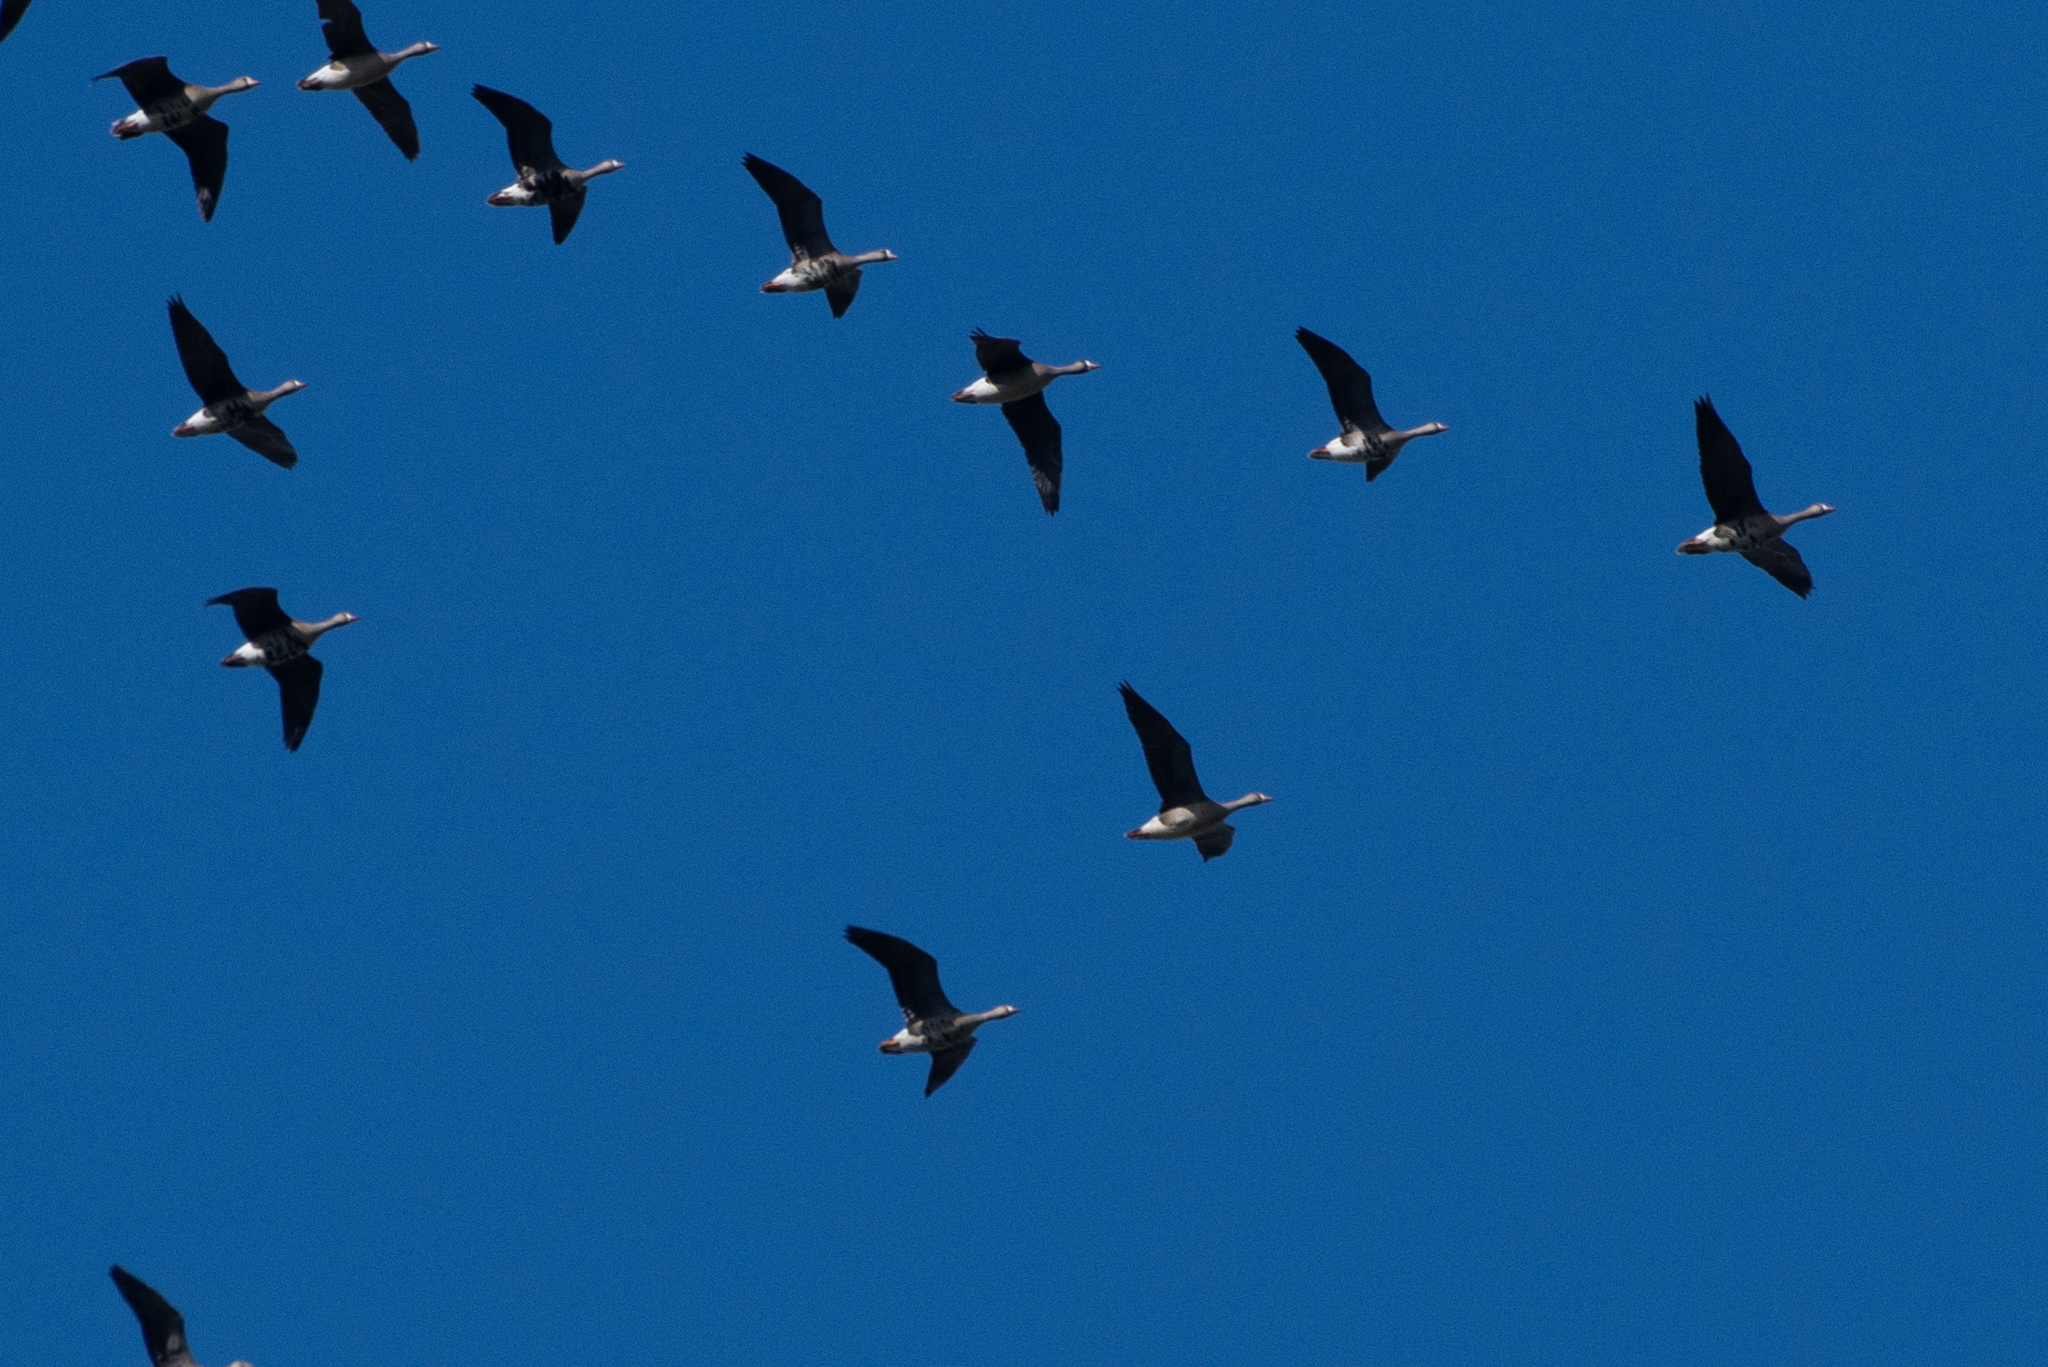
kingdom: Animalia
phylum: Chordata
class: Aves
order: Anseriformes
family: Anatidae
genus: Anser
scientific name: Anser albifrons
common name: Greater white-fronted goose
